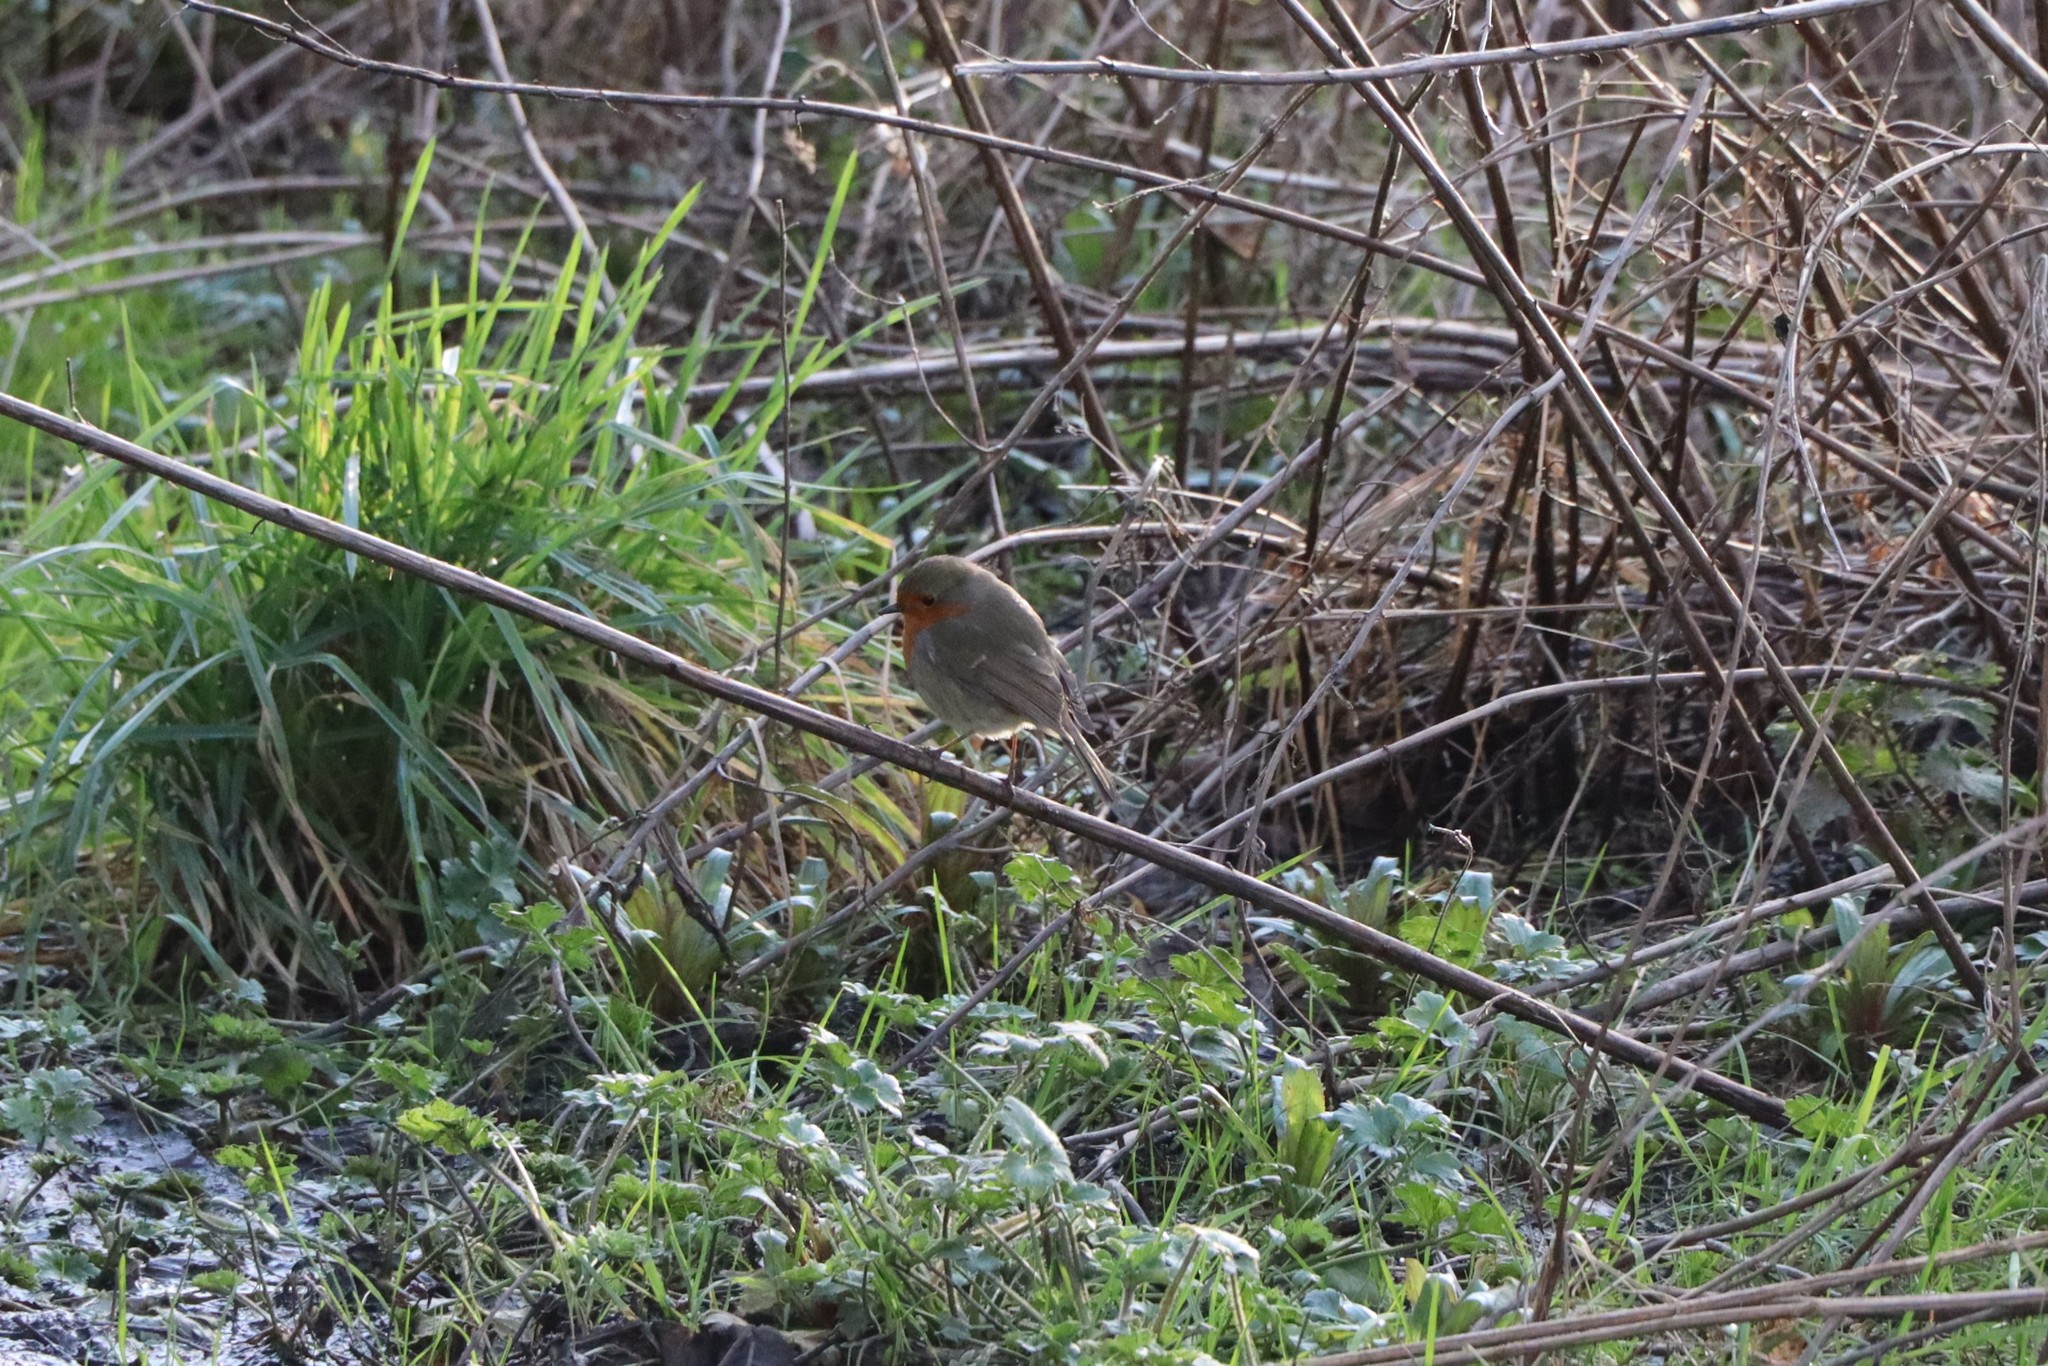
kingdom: Animalia
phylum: Chordata
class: Aves
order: Passeriformes
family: Muscicapidae
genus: Erithacus
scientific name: Erithacus rubecula
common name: European robin
